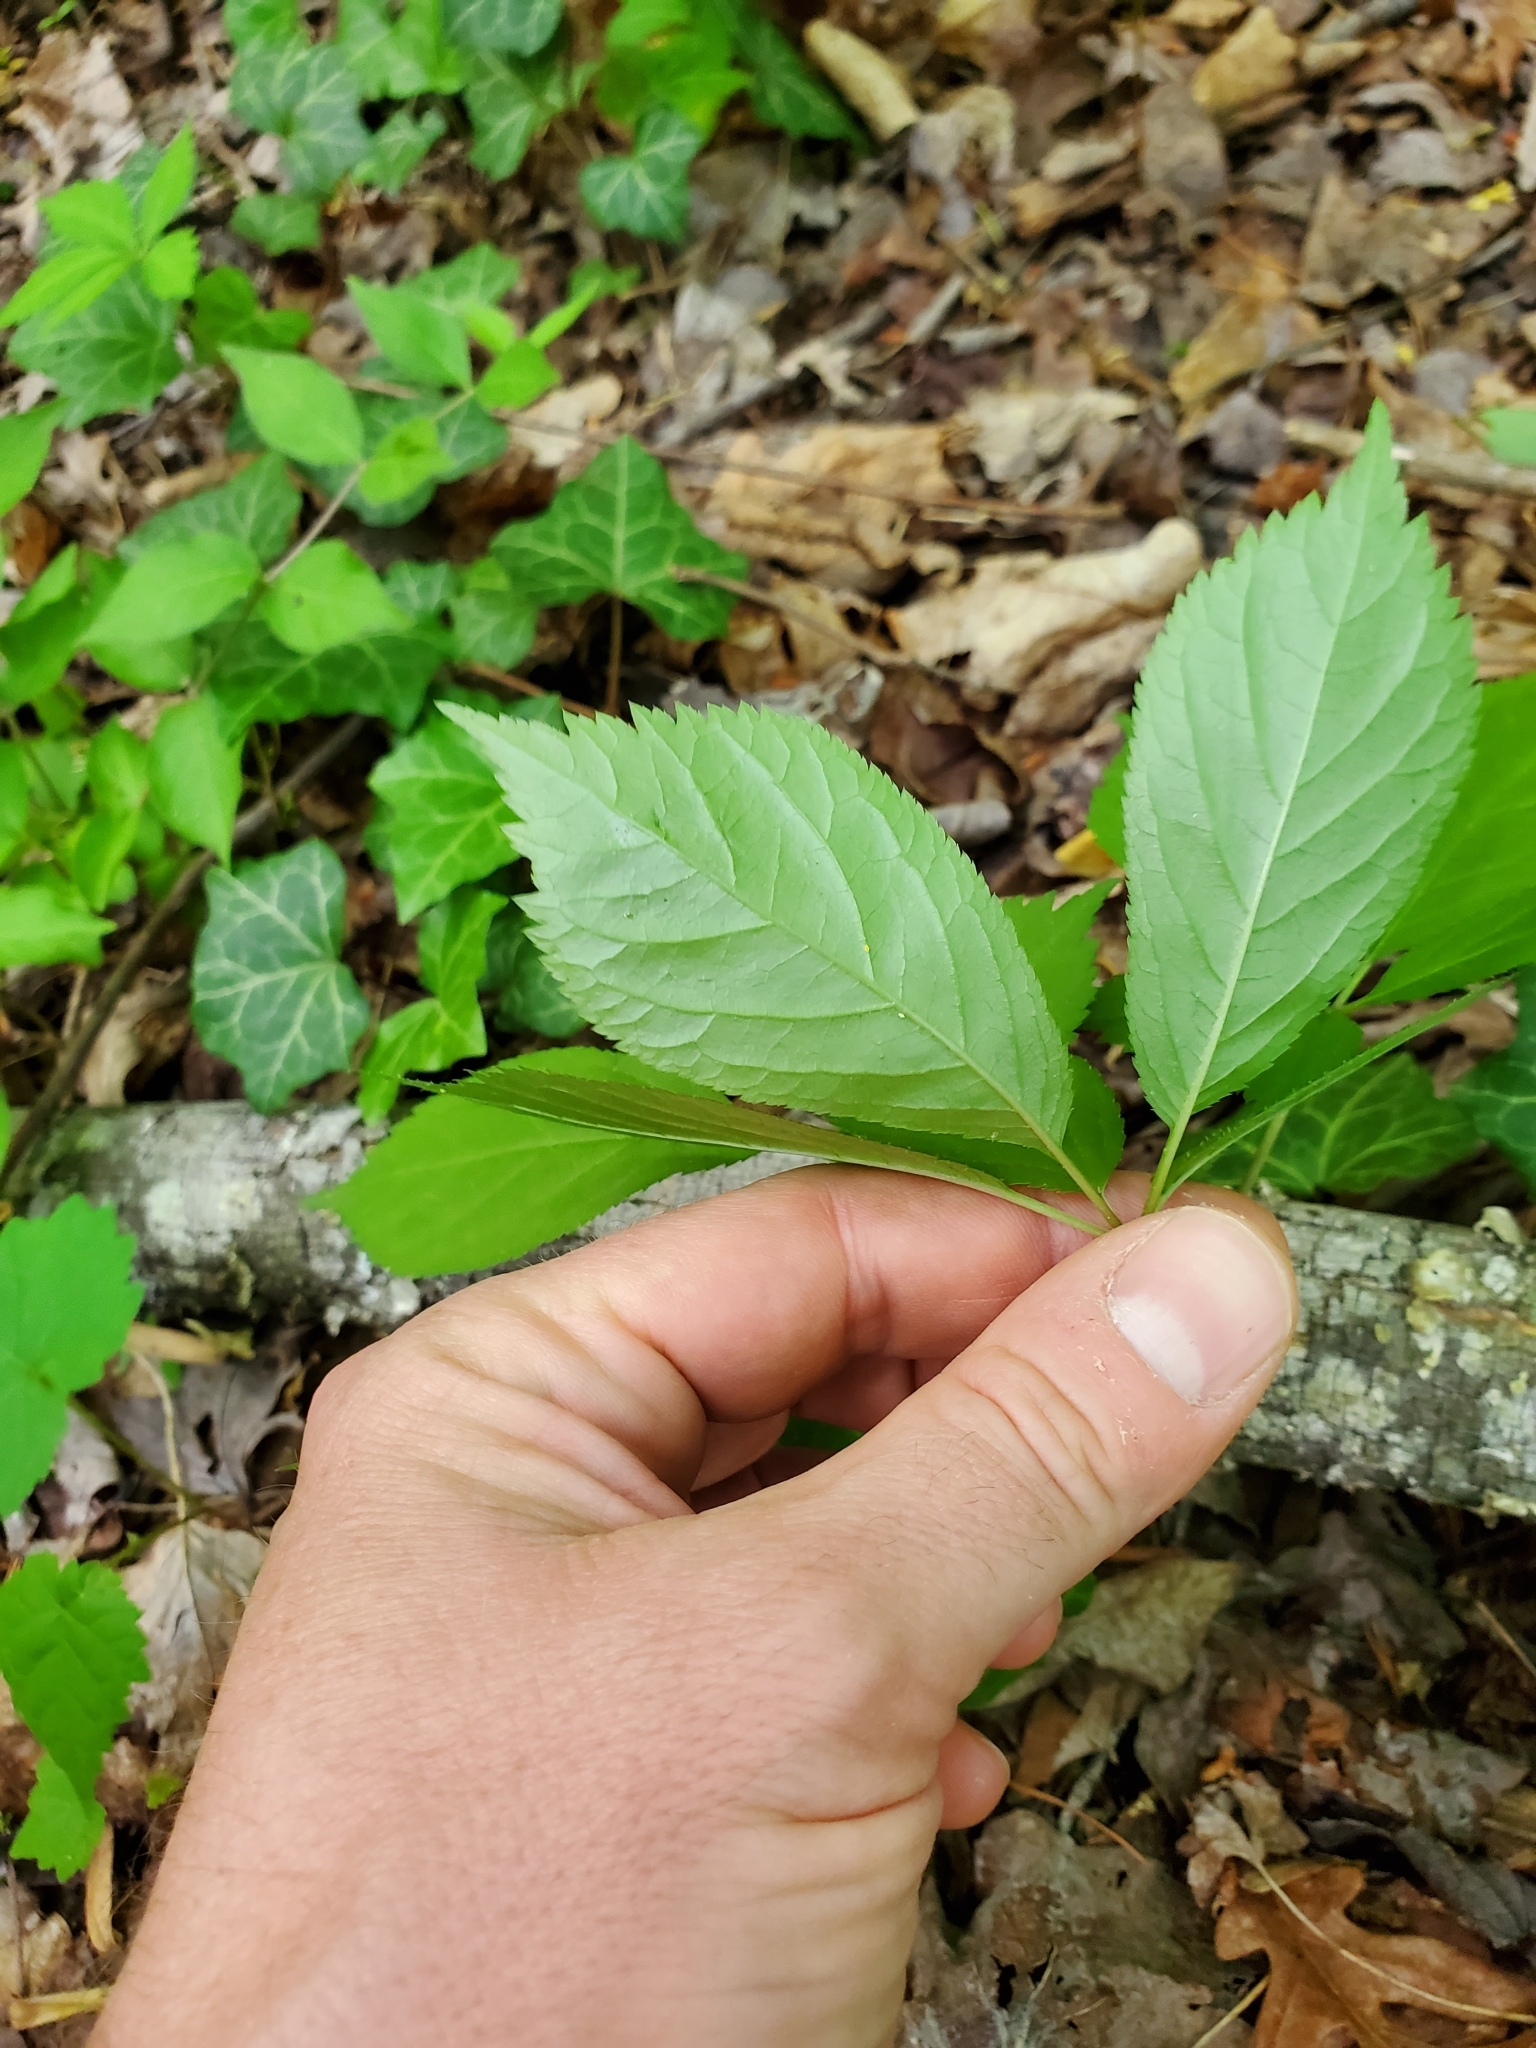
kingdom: Plantae
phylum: Tracheophyta
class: Magnoliopsida
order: Apiales
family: Araliaceae
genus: Panax
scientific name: Panax quinquefolius
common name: American ginseng
